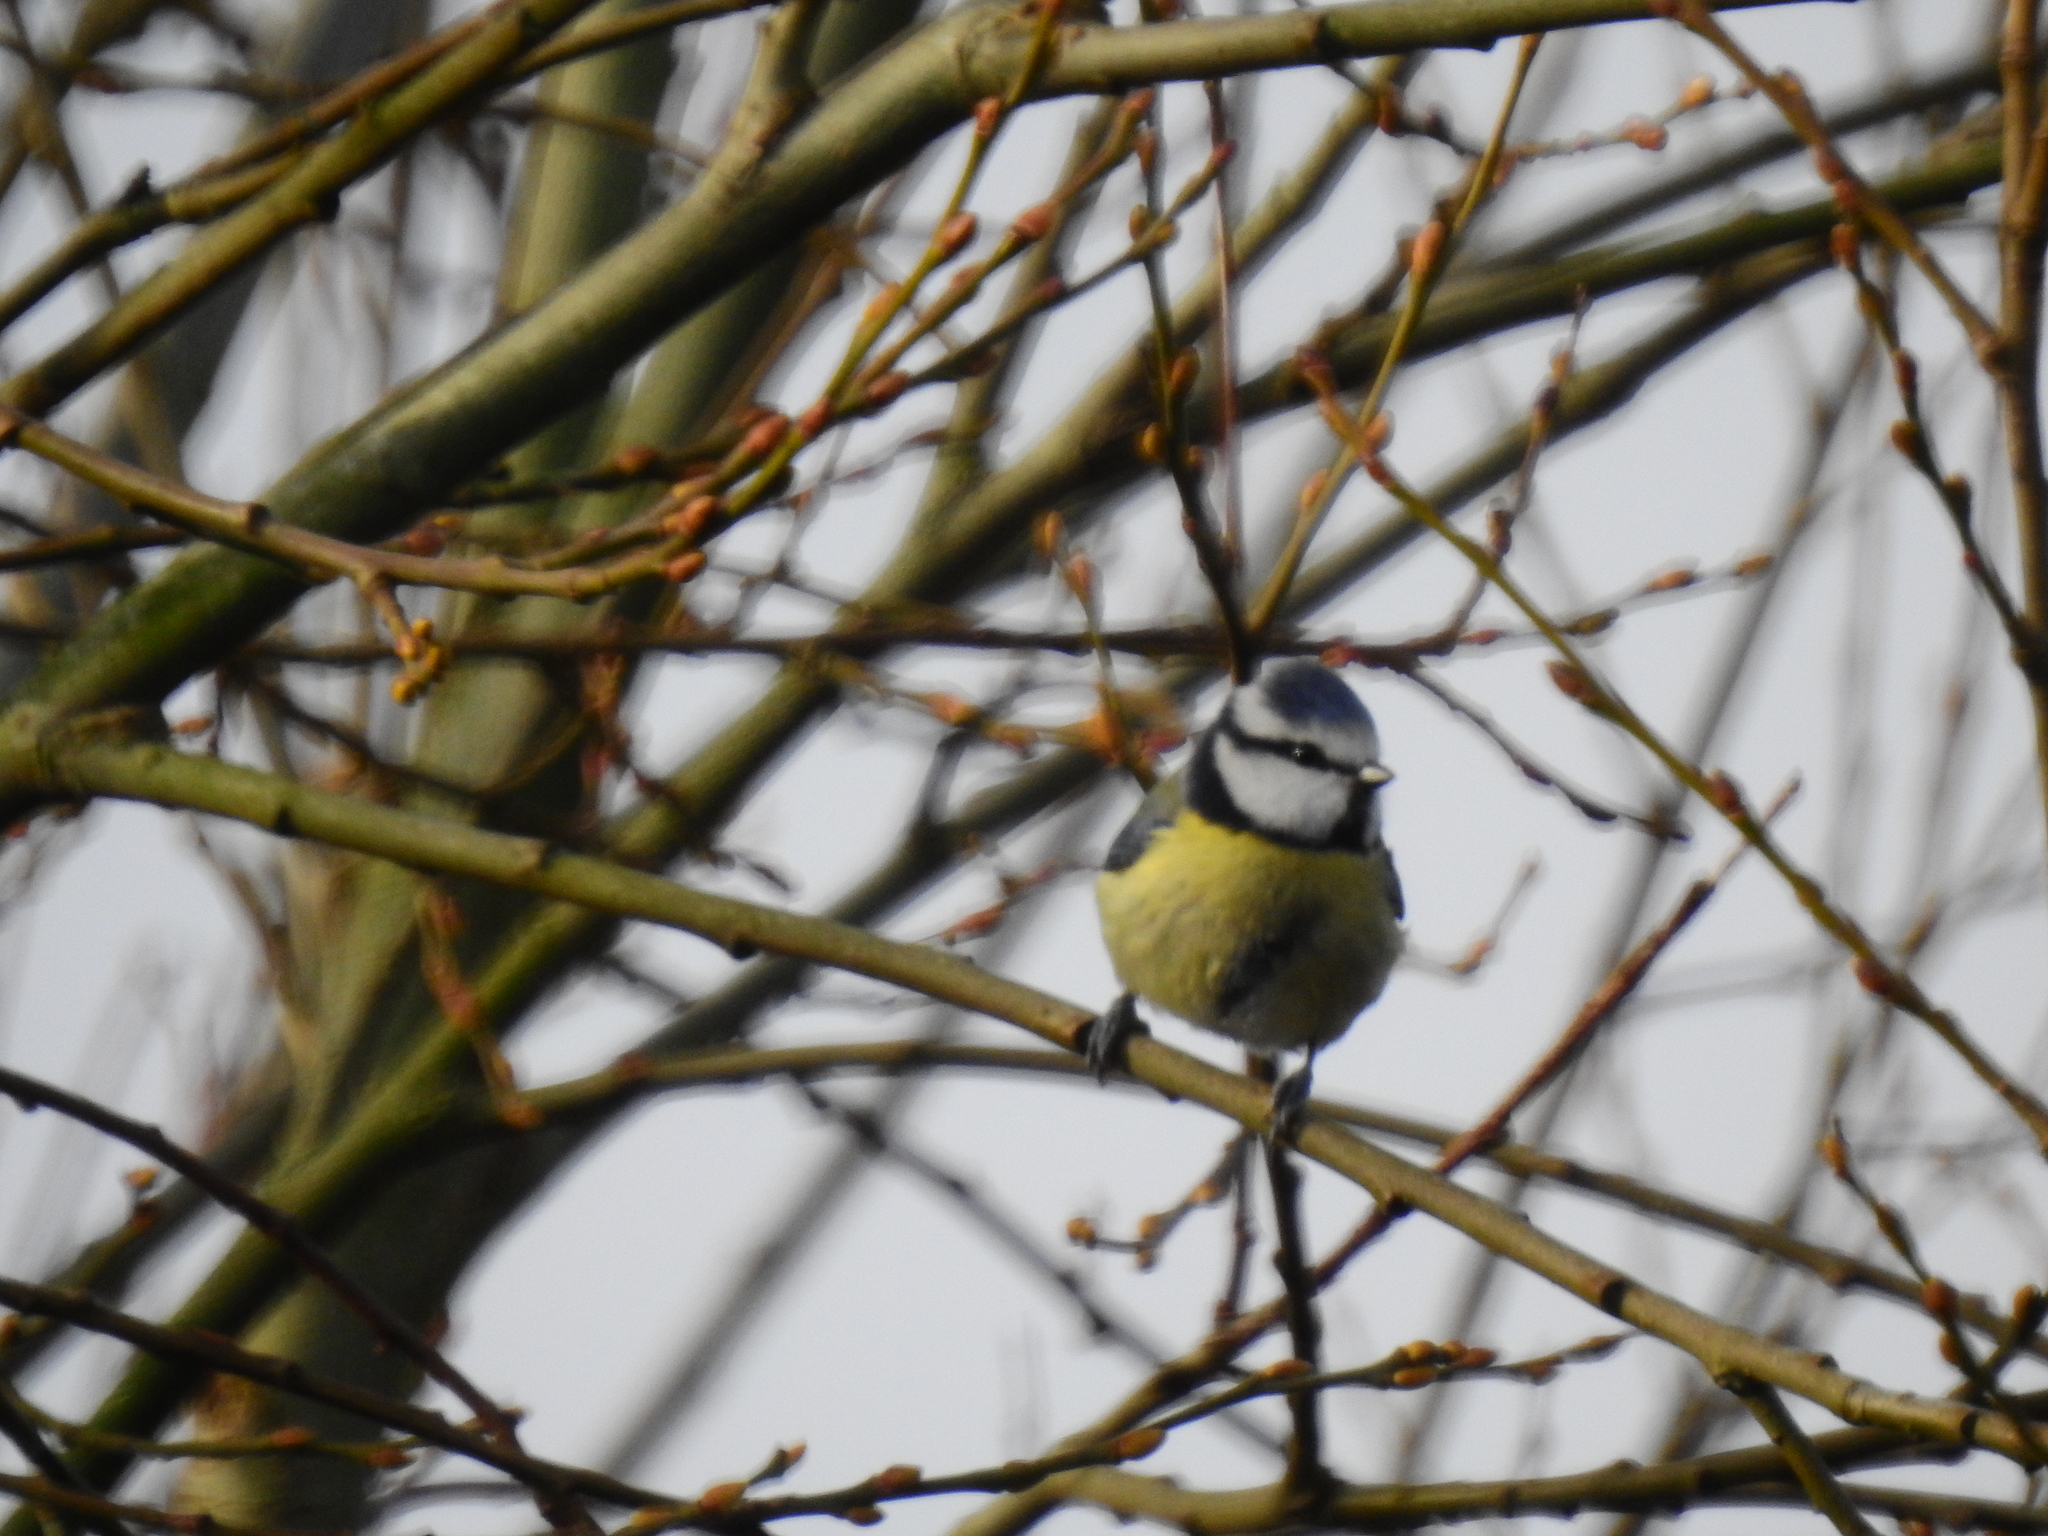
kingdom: Animalia
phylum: Chordata
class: Aves
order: Passeriformes
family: Paridae
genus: Cyanistes
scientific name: Cyanistes caeruleus
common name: Eurasian blue tit
